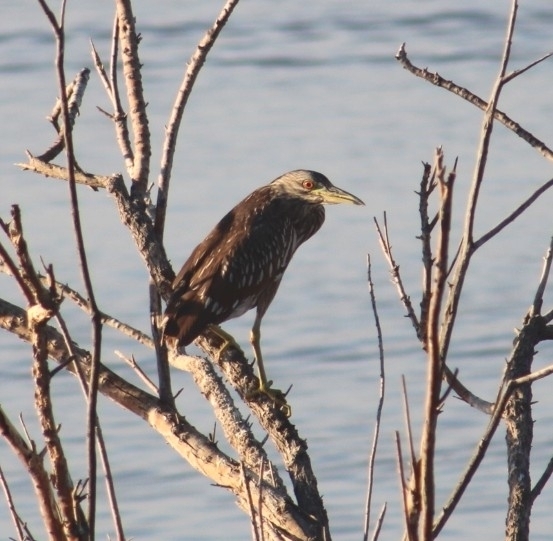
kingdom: Animalia
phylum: Chordata
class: Aves
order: Pelecaniformes
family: Ardeidae
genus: Nycticorax
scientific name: Nycticorax nycticorax
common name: Black-crowned night heron
